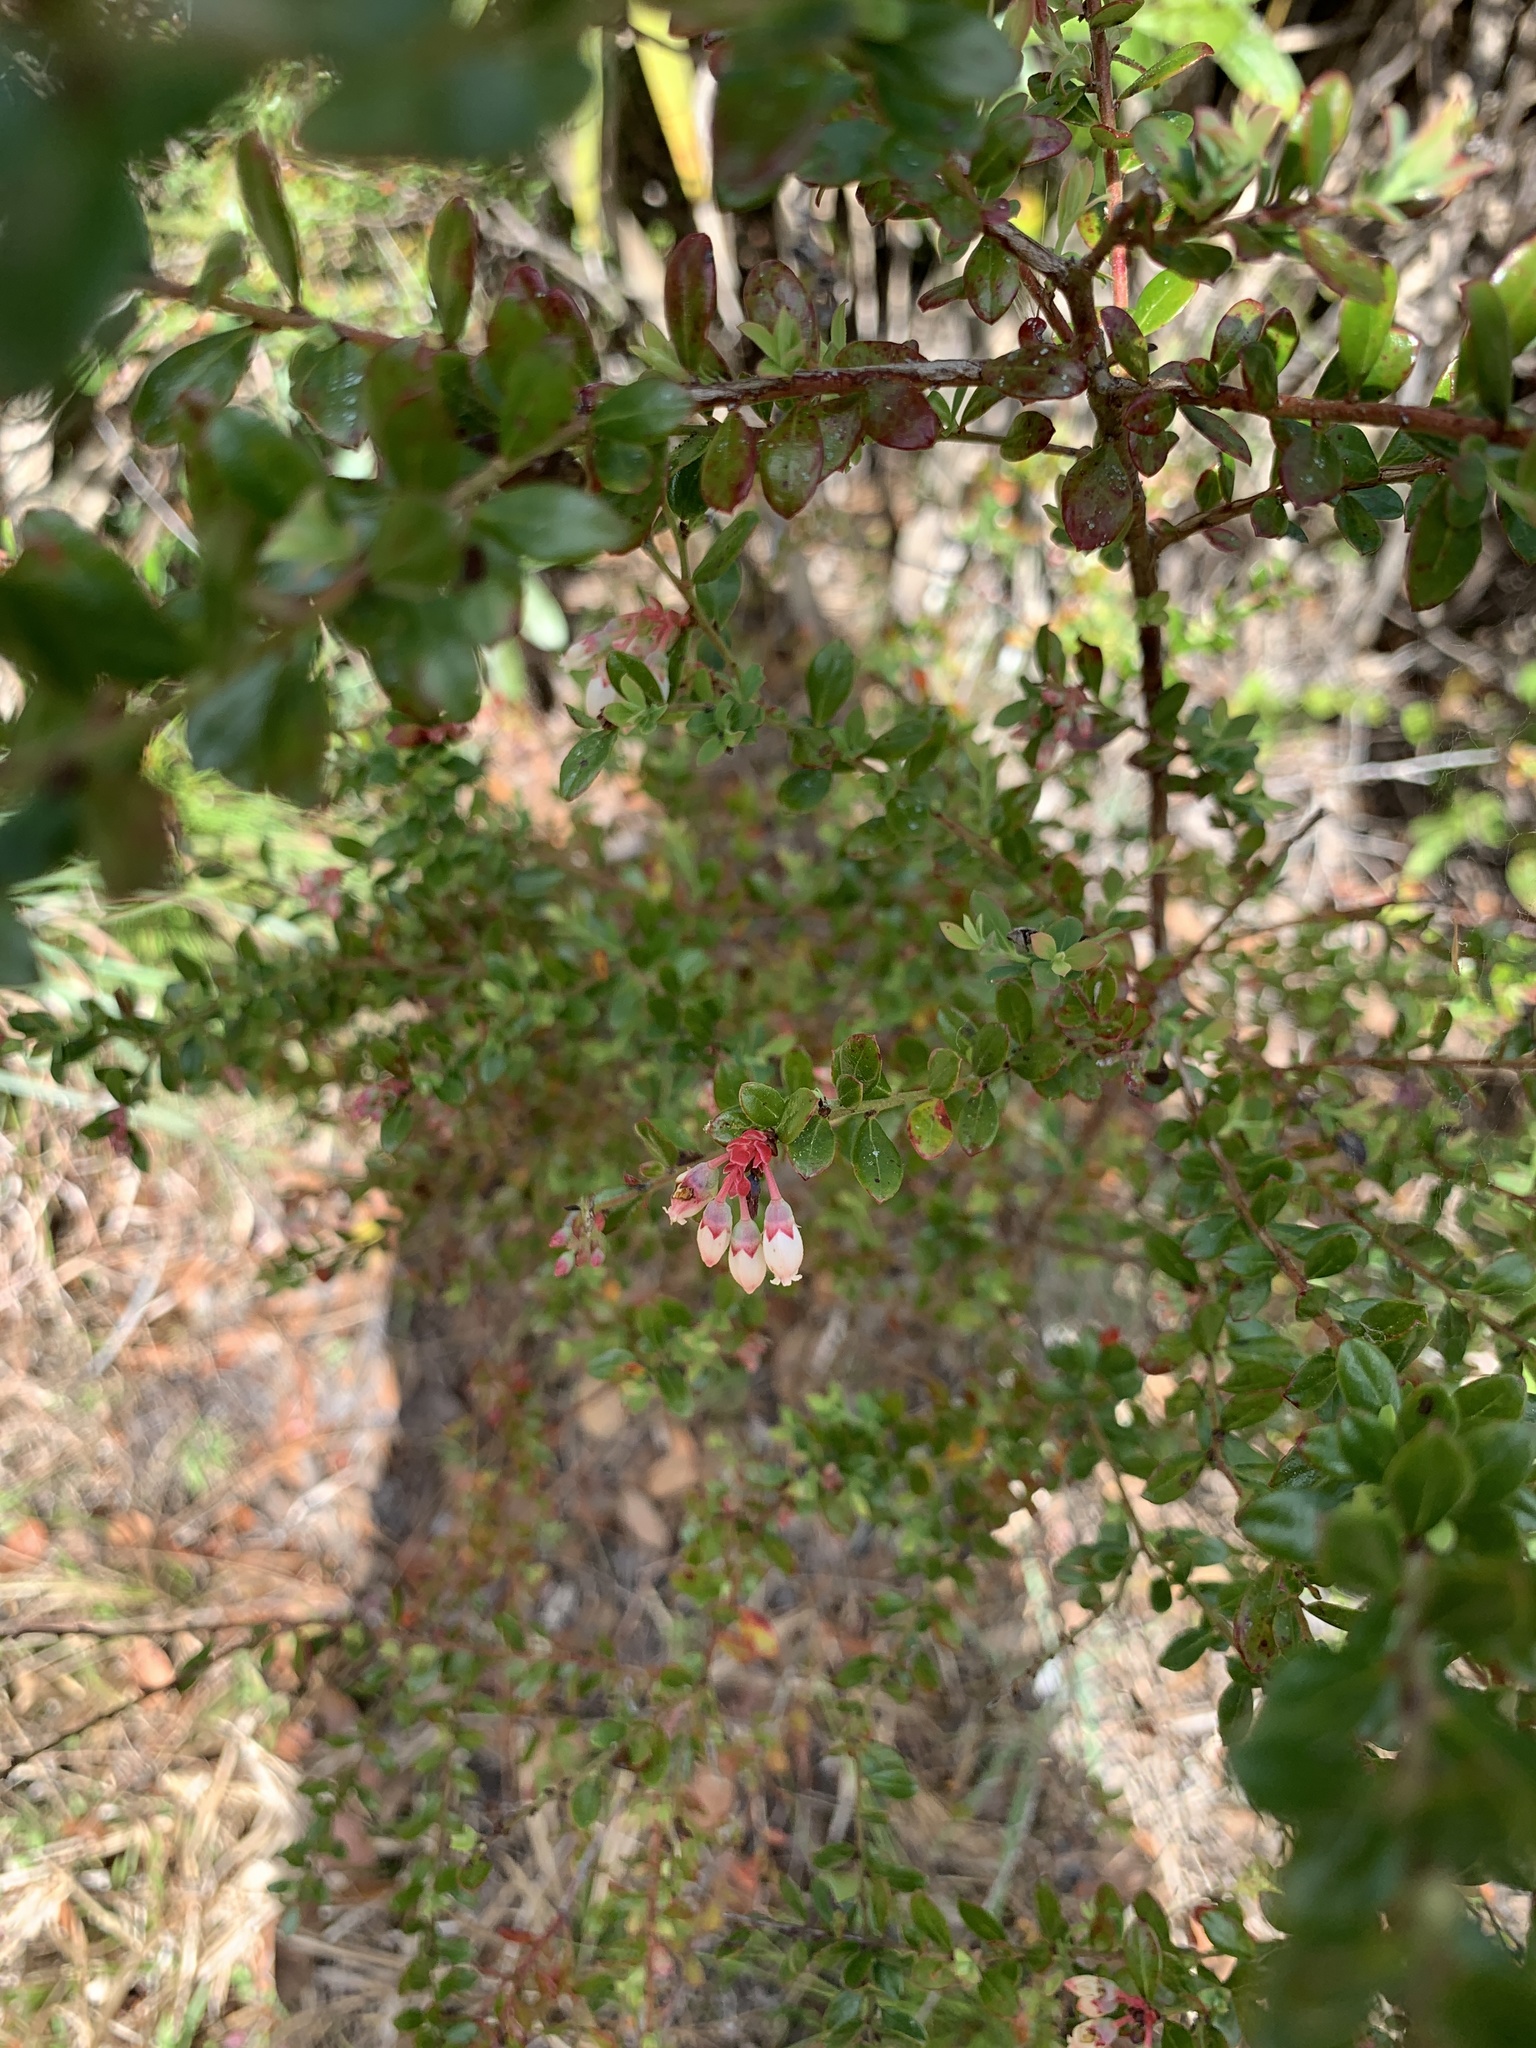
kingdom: Plantae
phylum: Tracheophyta
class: Magnoliopsida
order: Ericales
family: Ericaceae
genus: Vaccinium
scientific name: Vaccinium myrsinites
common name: Evergreen blueberry
